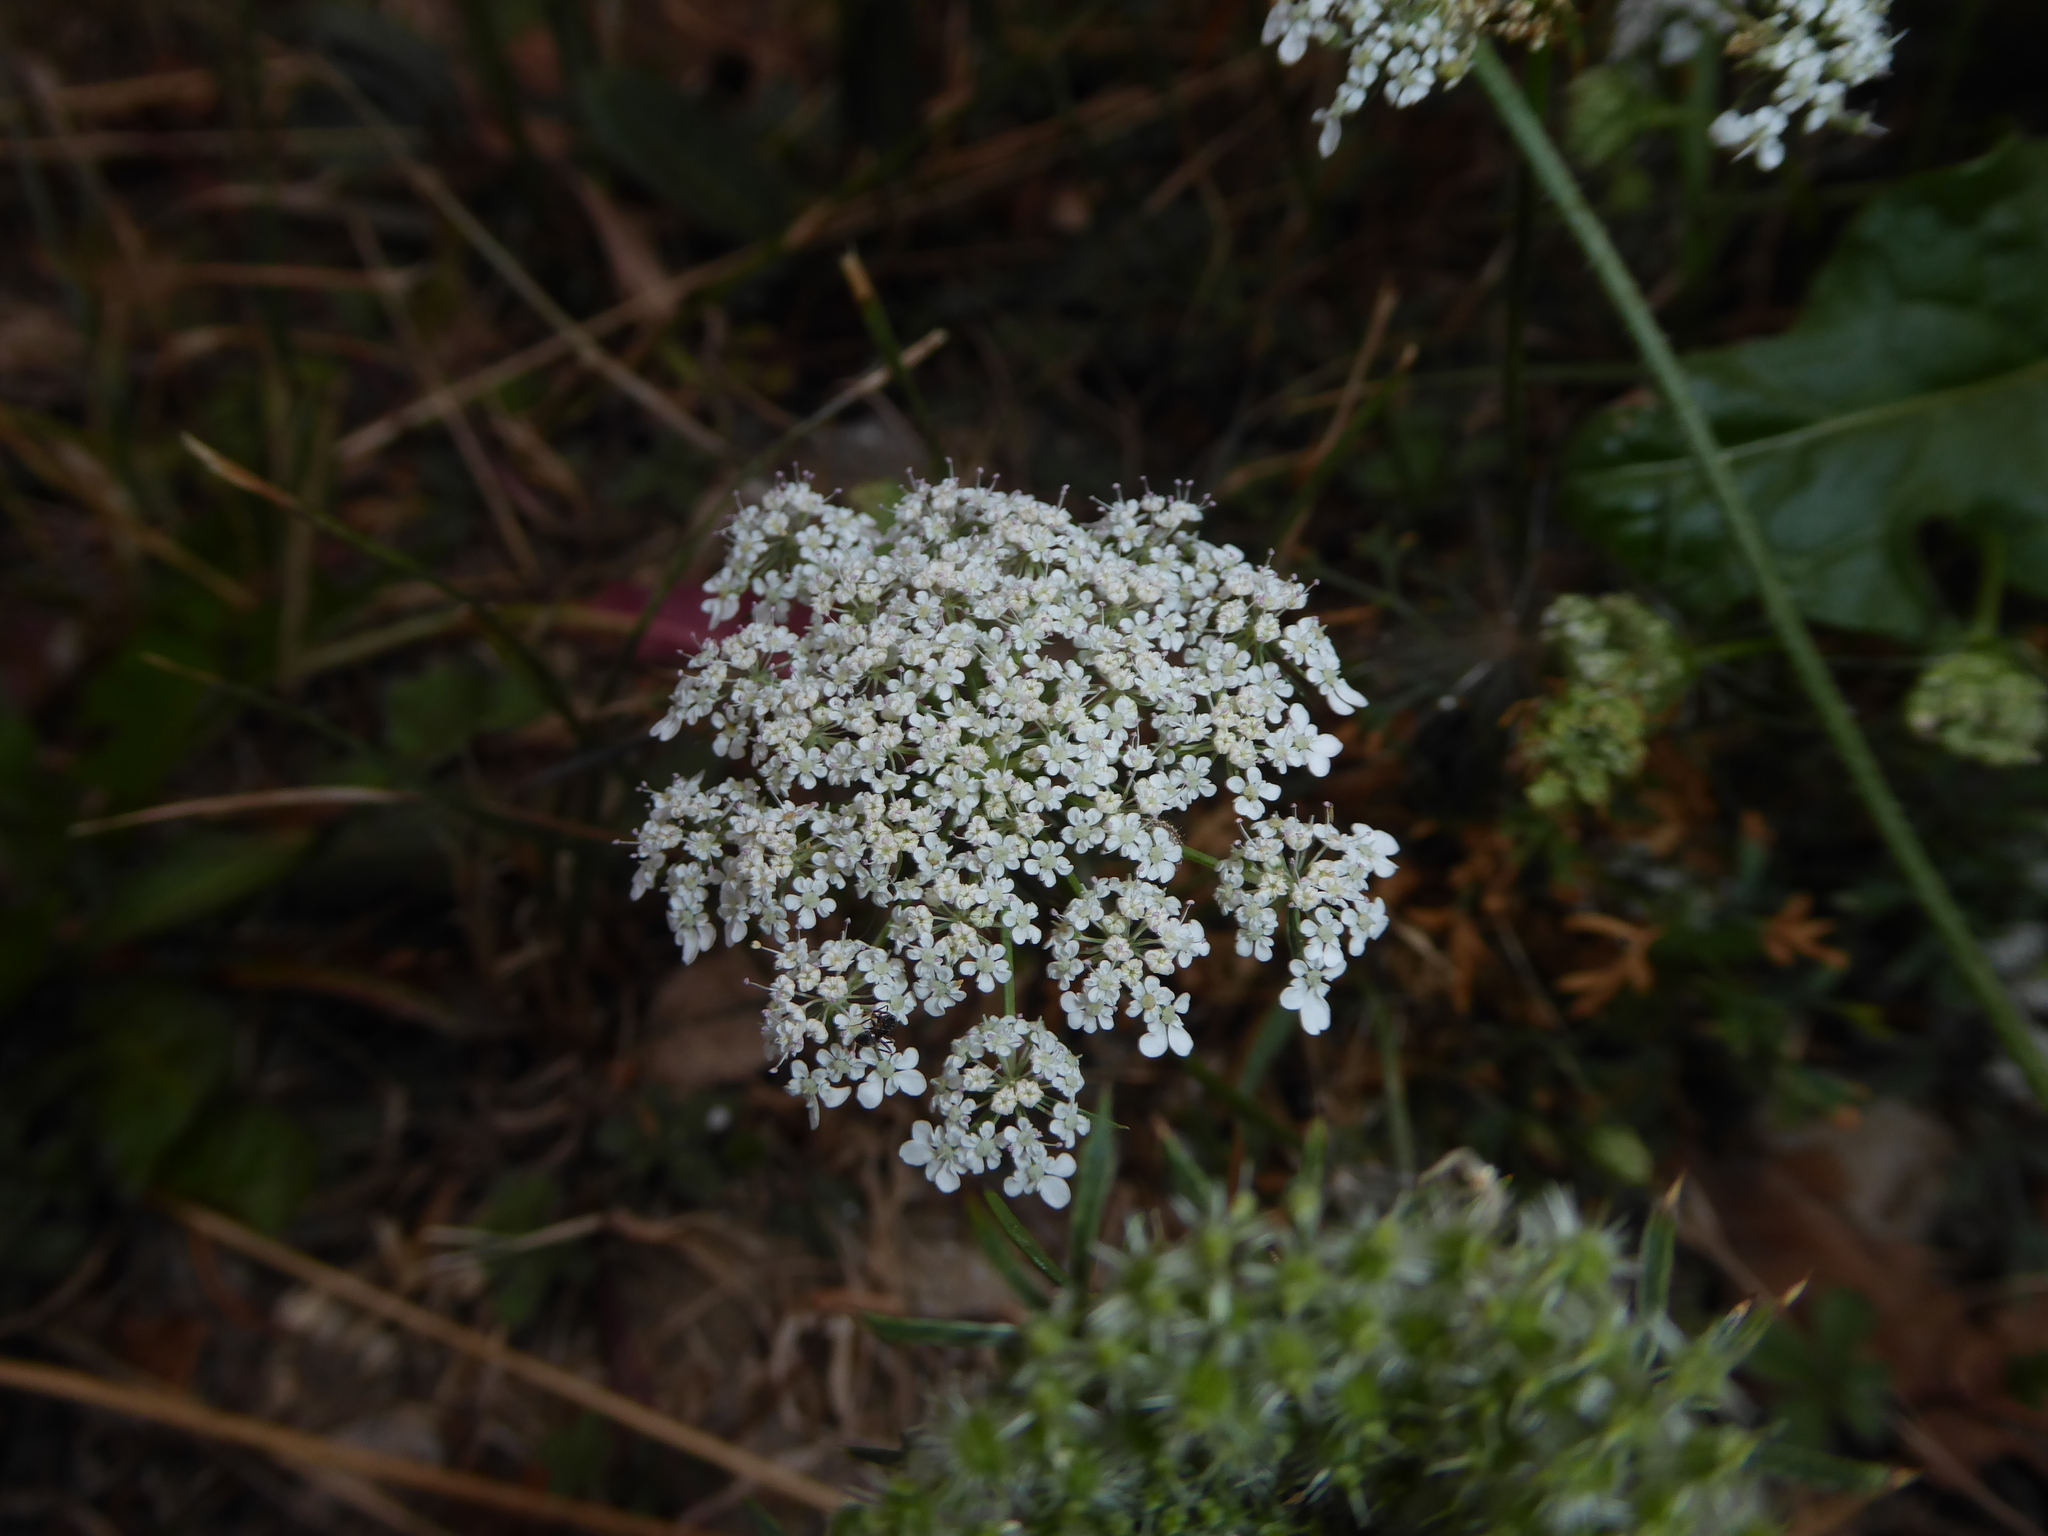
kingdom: Plantae
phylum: Tracheophyta
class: Magnoliopsida
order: Apiales
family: Apiaceae
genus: Daucus
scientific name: Daucus carota
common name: Wild carrot
